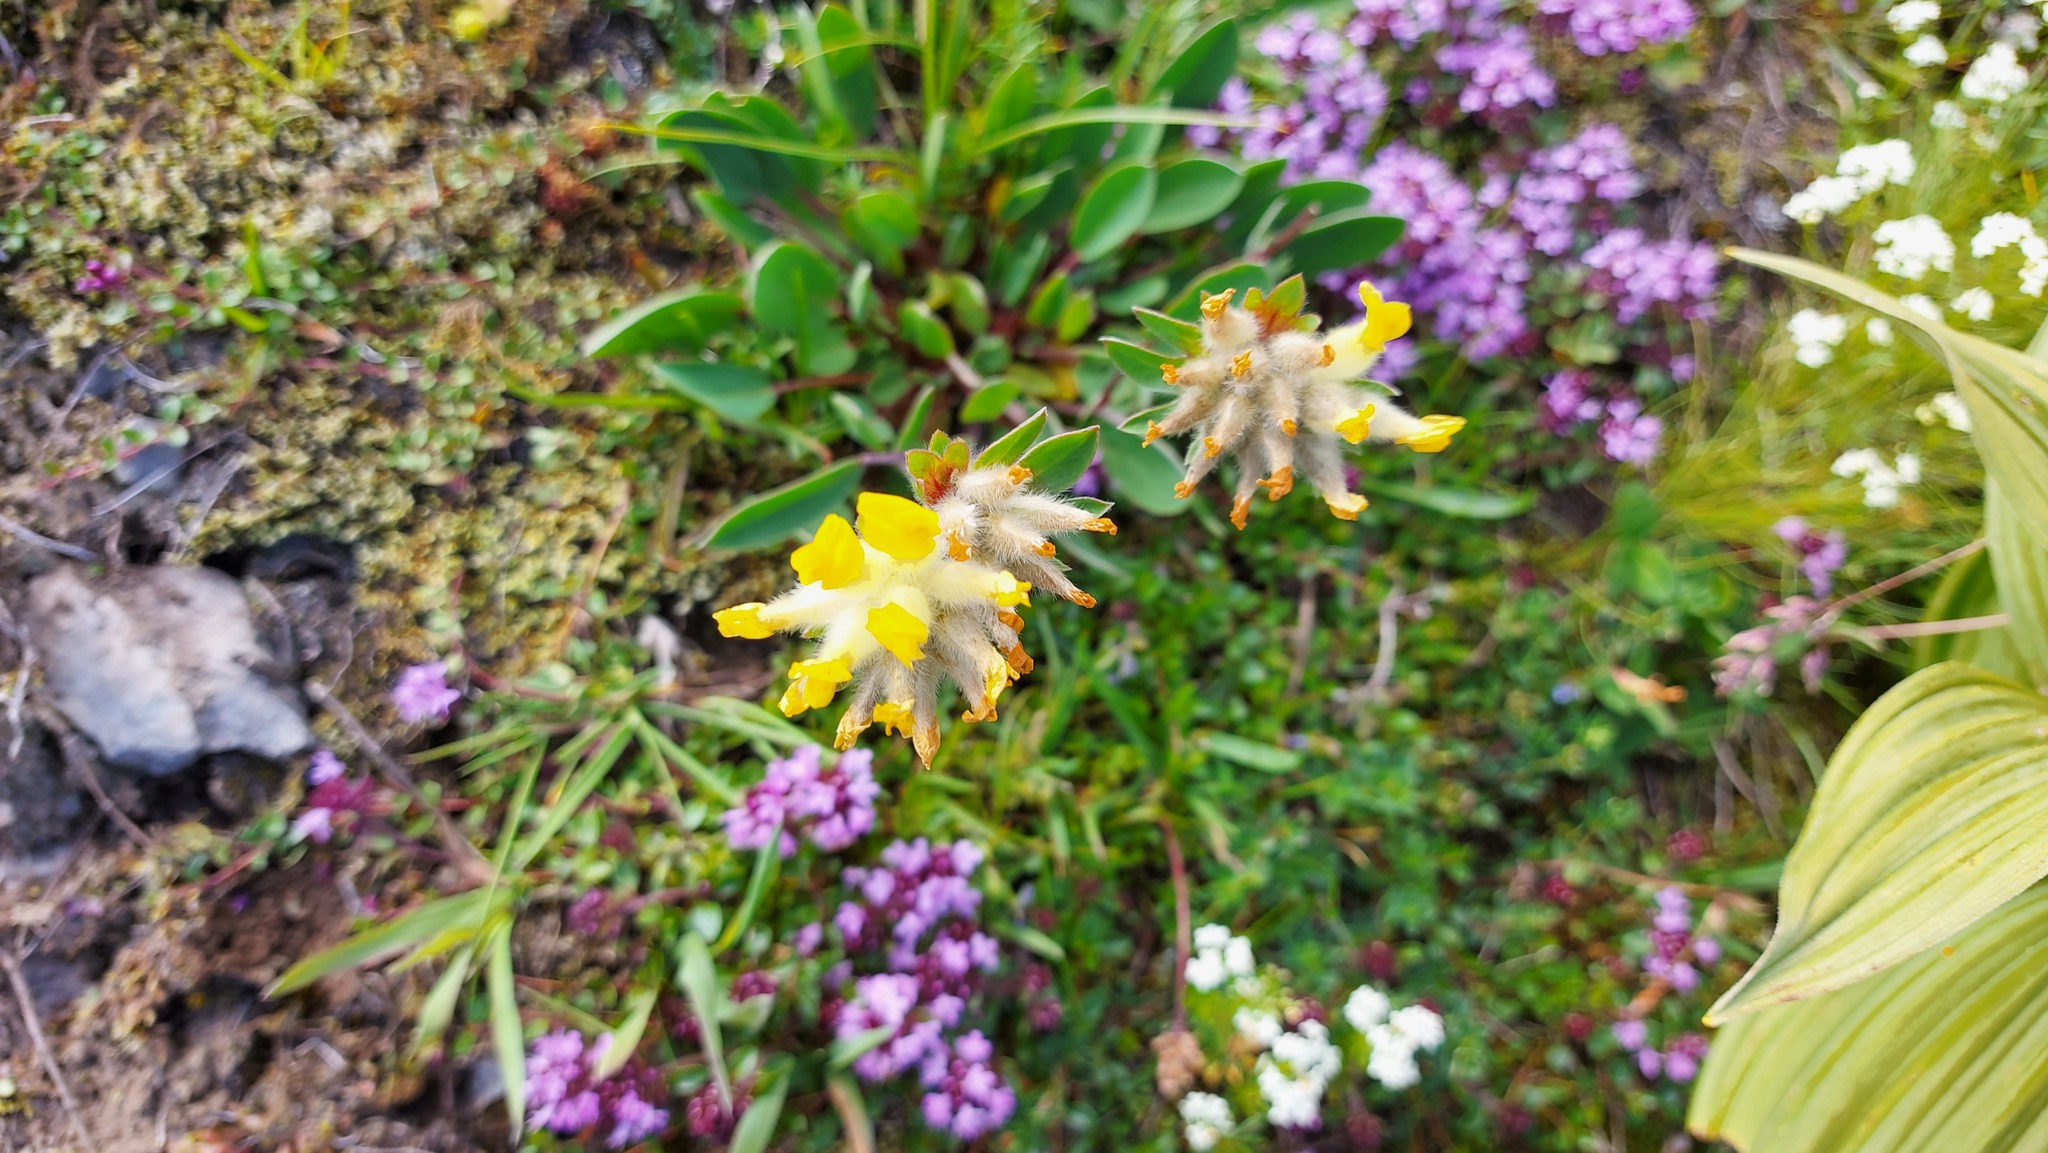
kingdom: Plantae
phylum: Tracheophyta
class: Magnoliopsida
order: Fabales
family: Fabaceae
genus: Anthyllis
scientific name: Anthyllis vulneraria
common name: Kidney vetch
